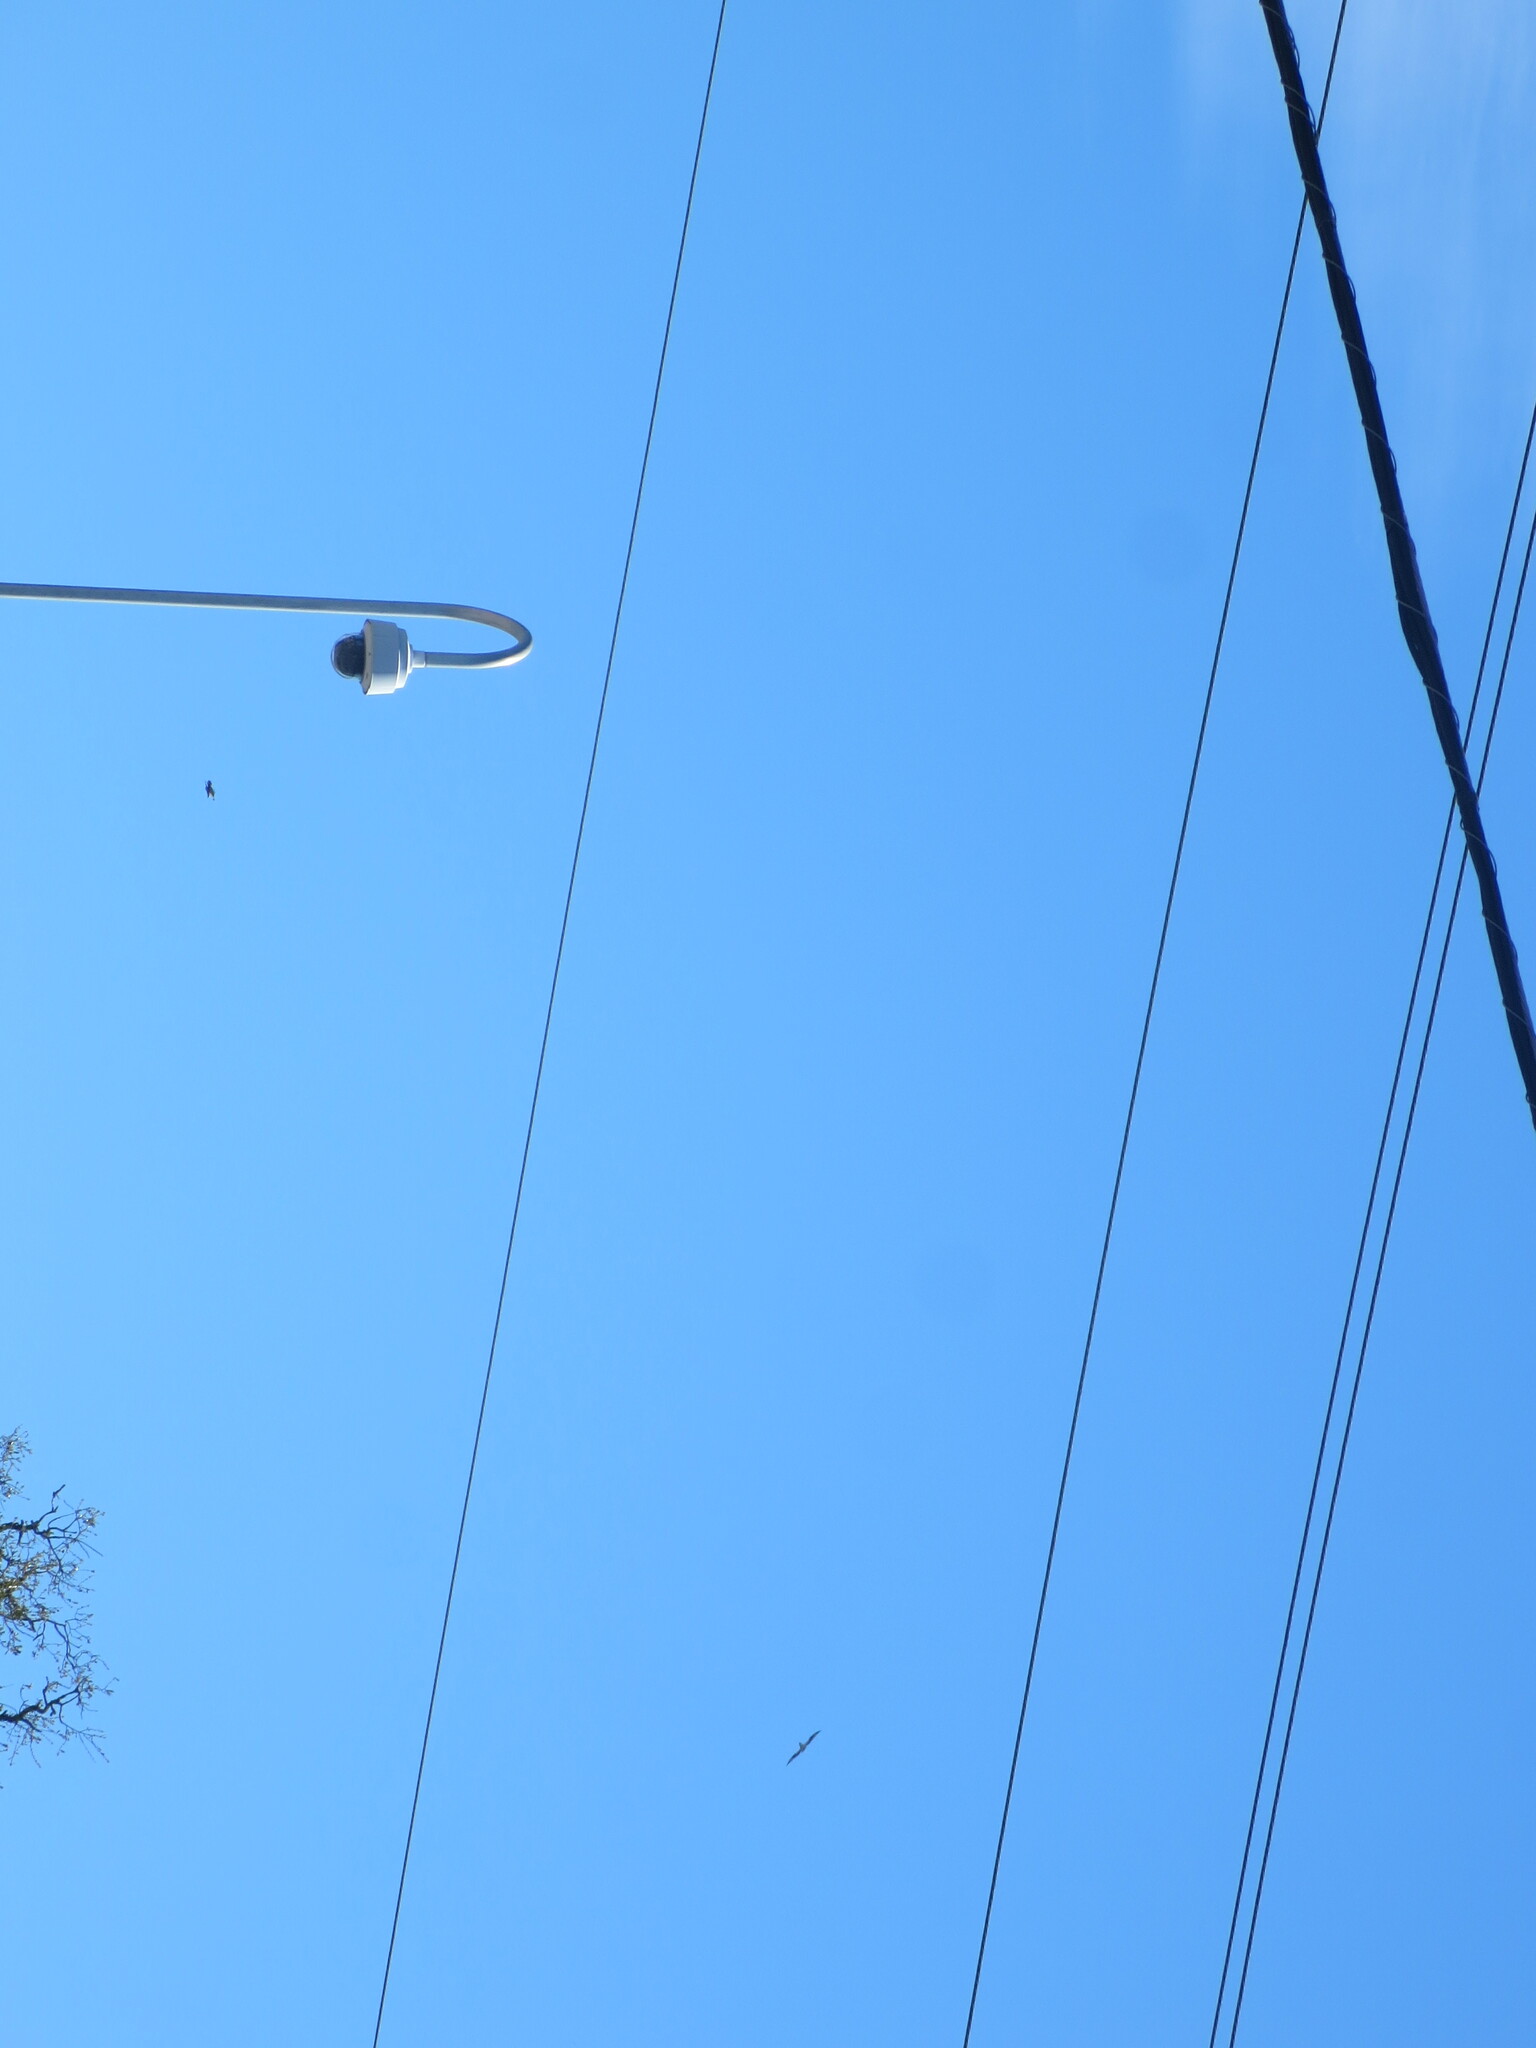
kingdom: Animalia
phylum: Chordata
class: Aves
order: Accipitriformes
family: Pandionidae
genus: Pandion
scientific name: Pandion haliaetus
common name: Osprey
